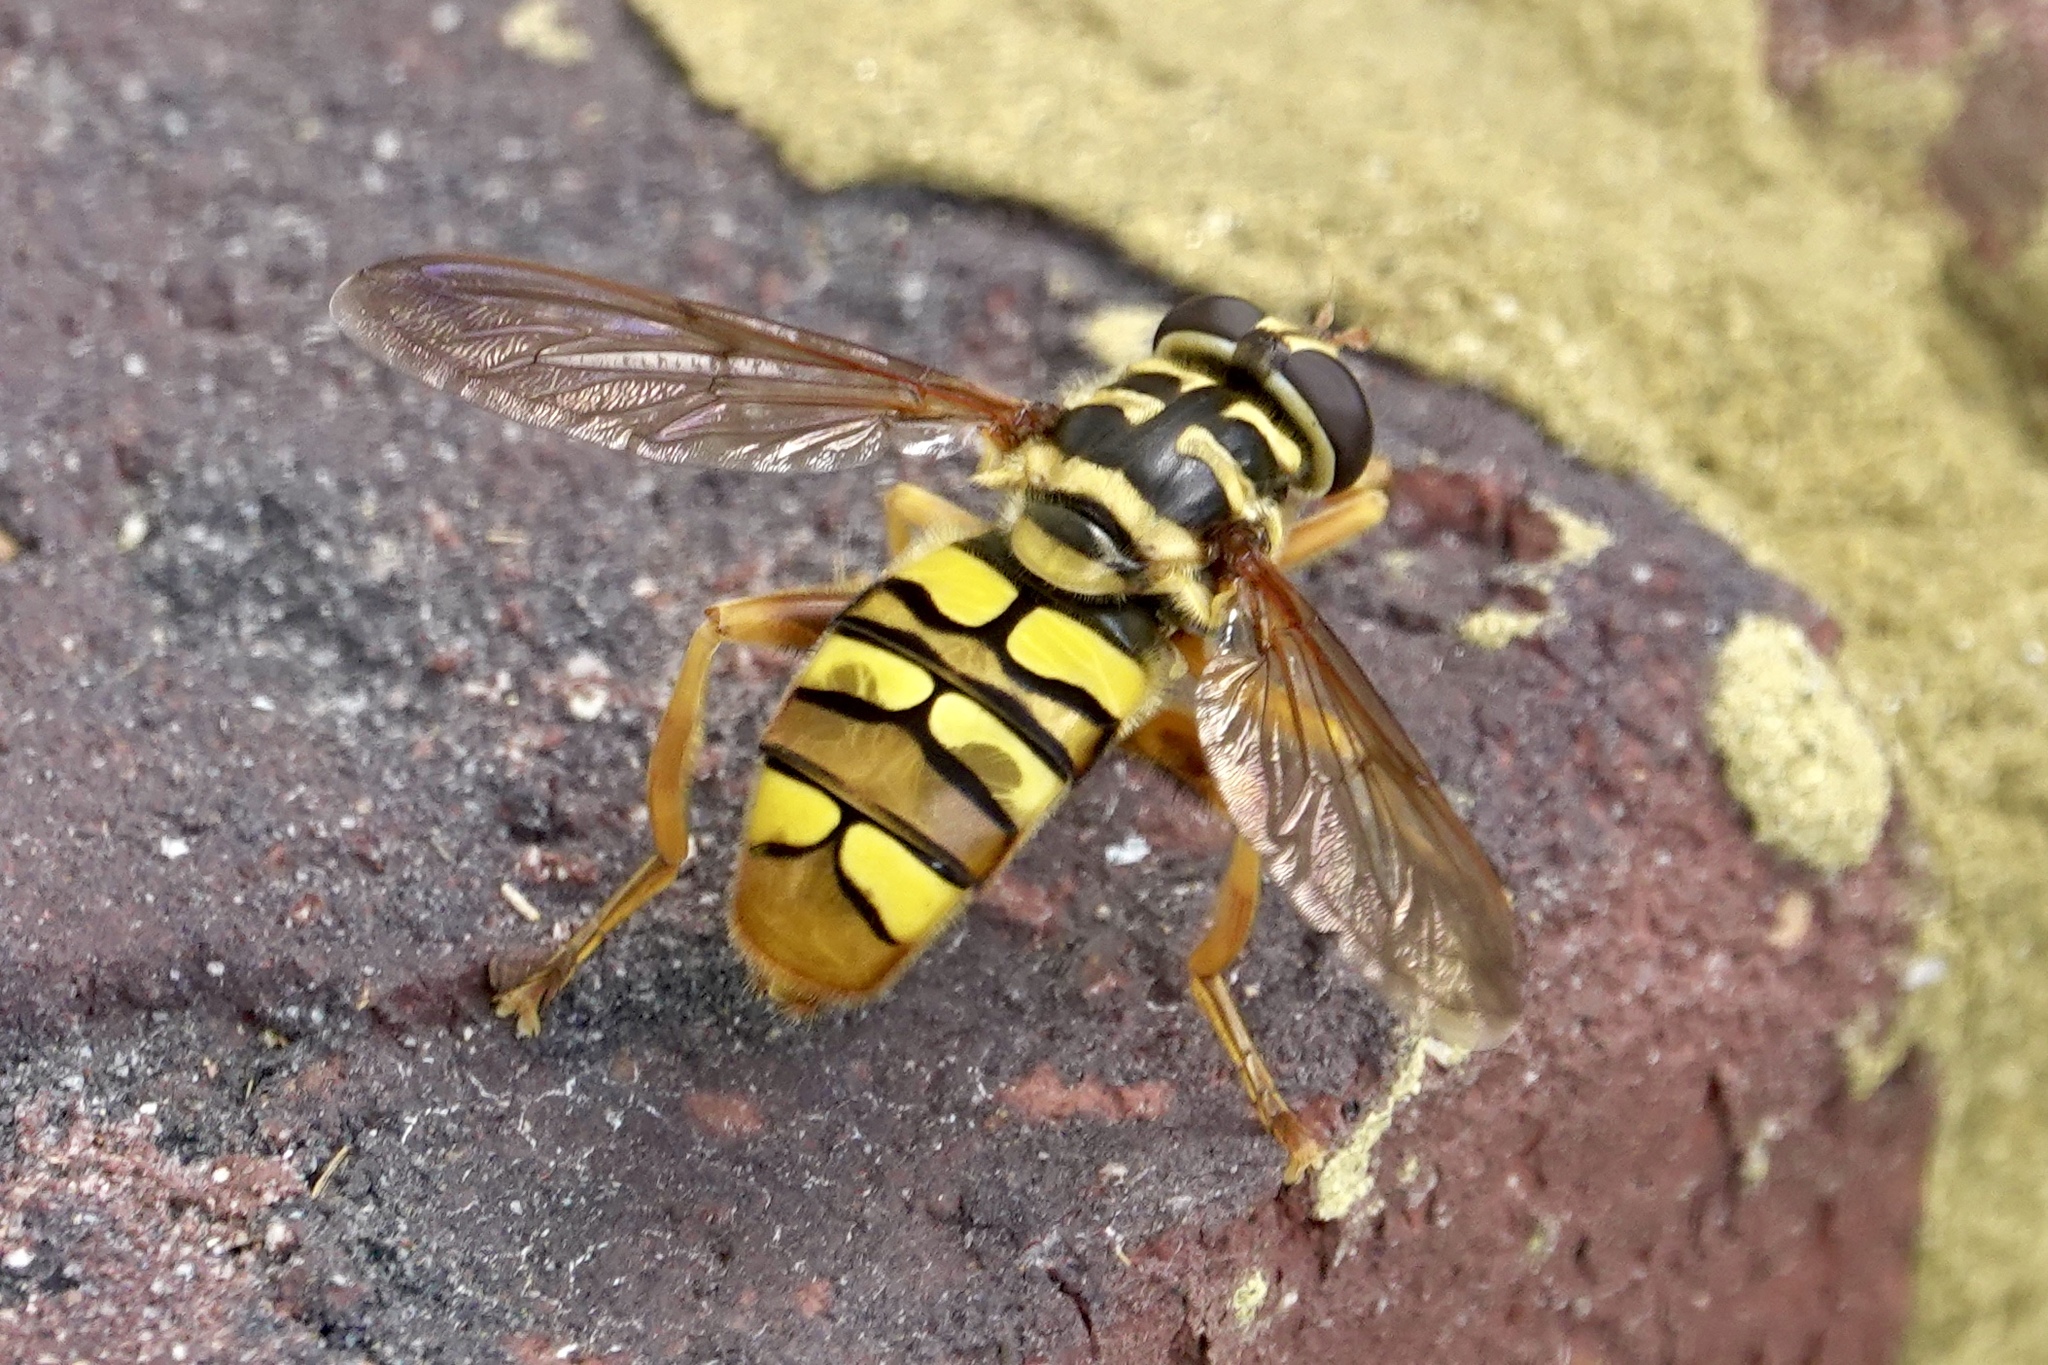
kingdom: Animalia
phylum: Arthropoda
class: Insecta
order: Diptera
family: Syrphidae
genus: Milesia
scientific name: Milesia virginiensis
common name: Virginia giant
